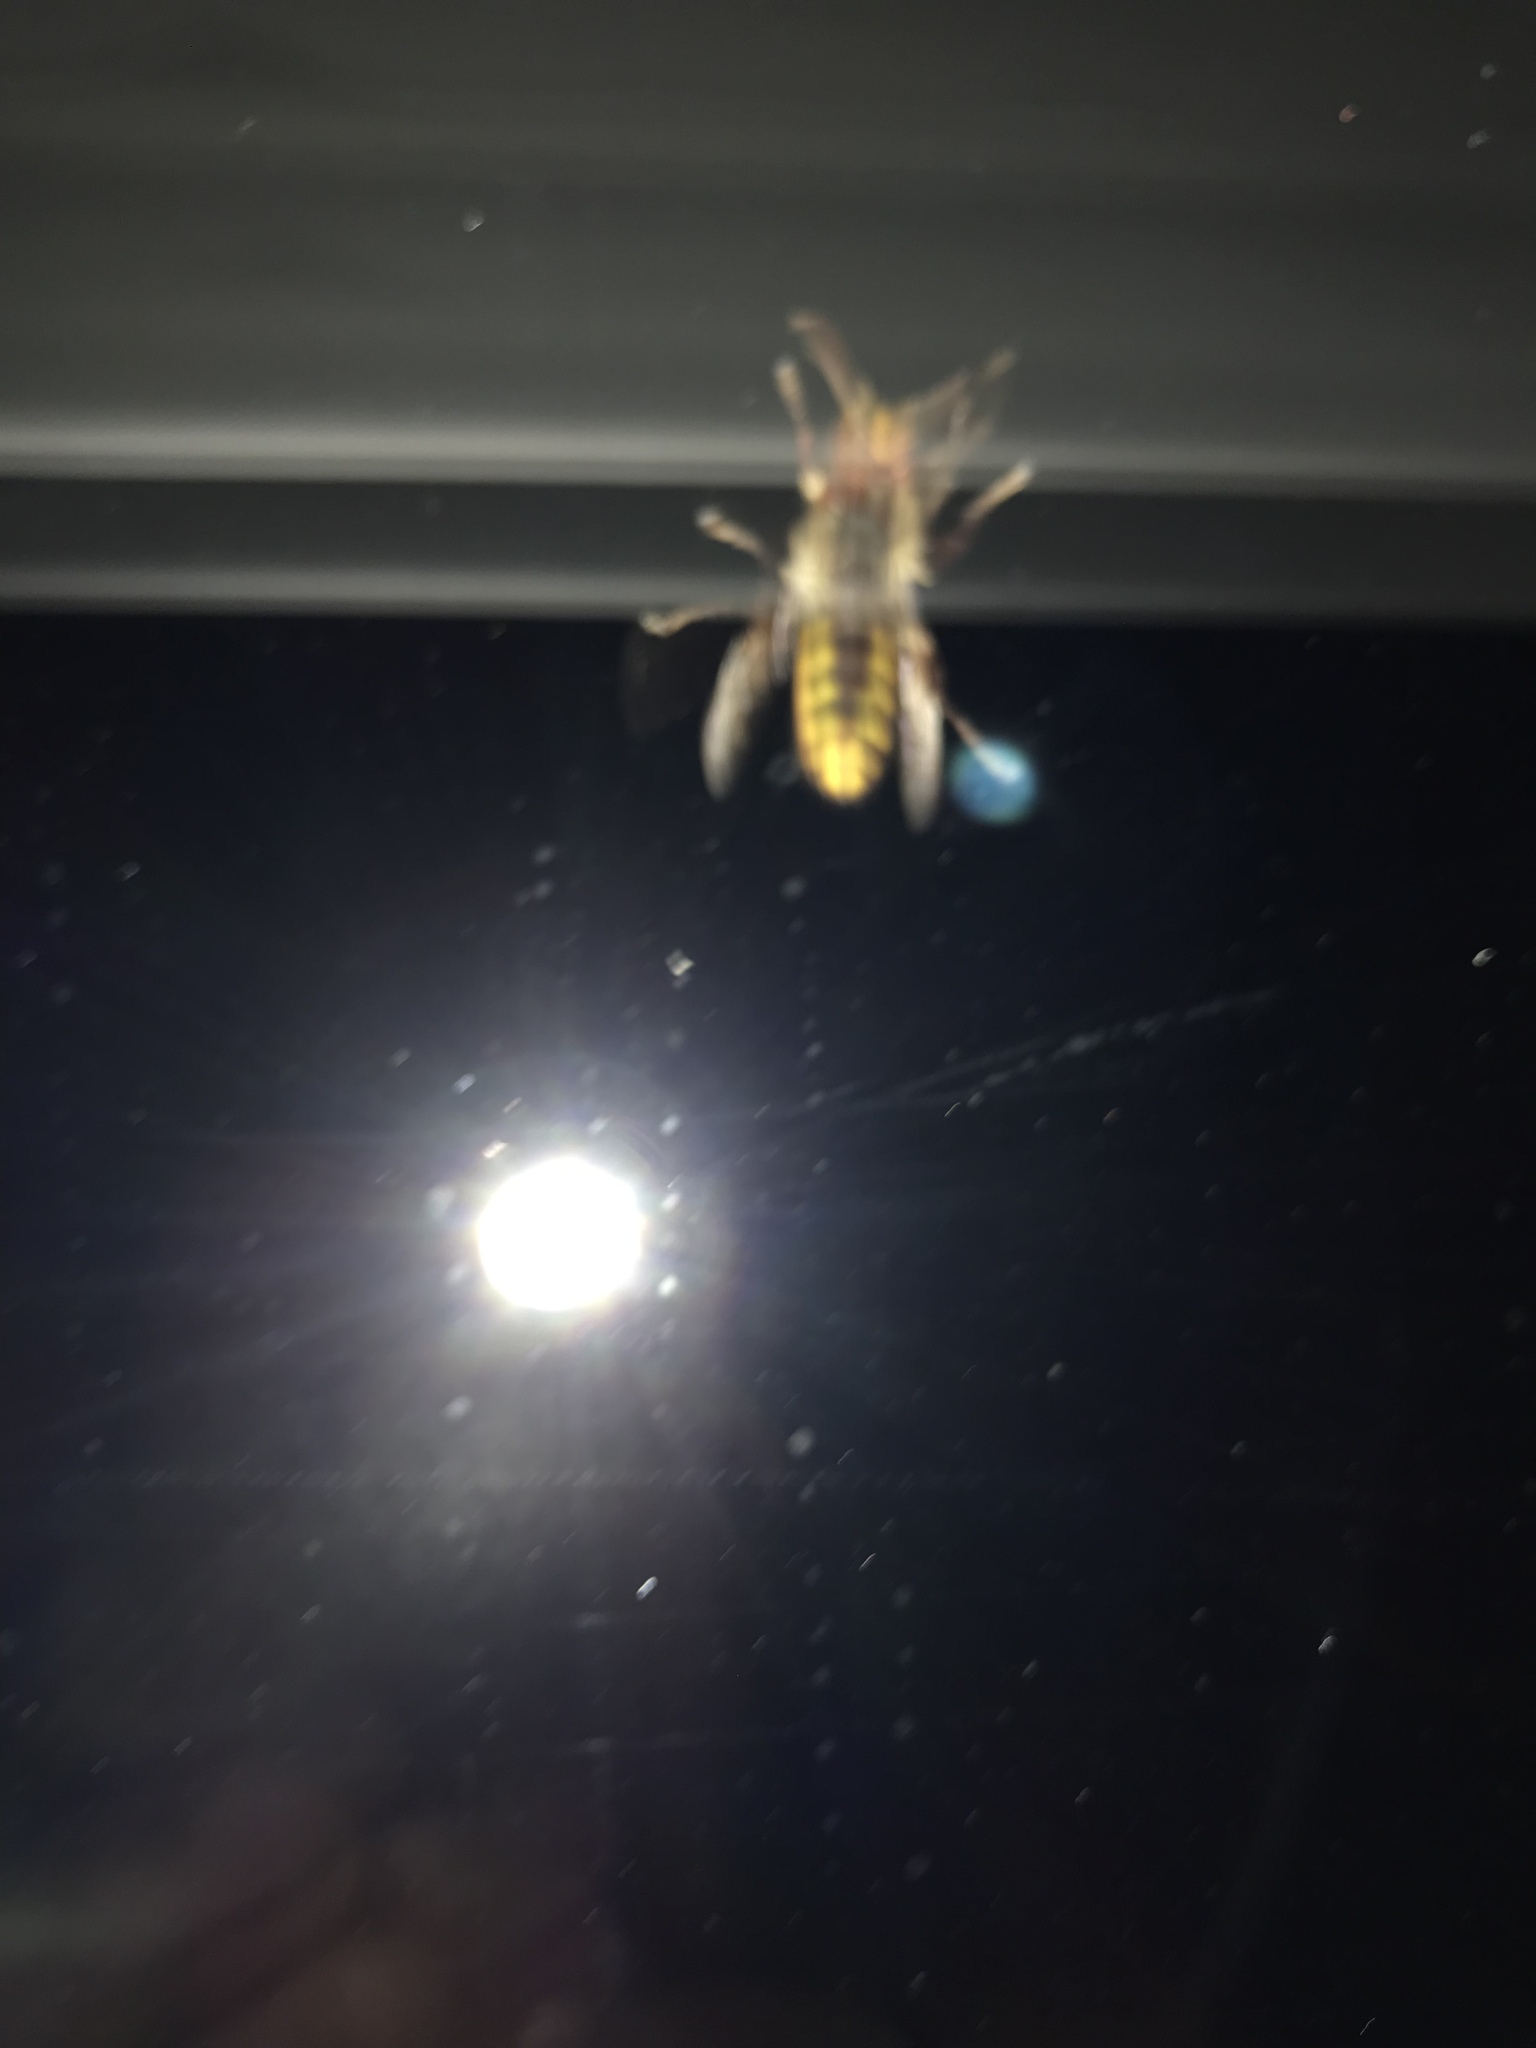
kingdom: Animalia
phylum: Arthropoda
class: Insecta
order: Hymenoptera
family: Vespidae
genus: Vespa
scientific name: Vespa crabro
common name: Hornet
